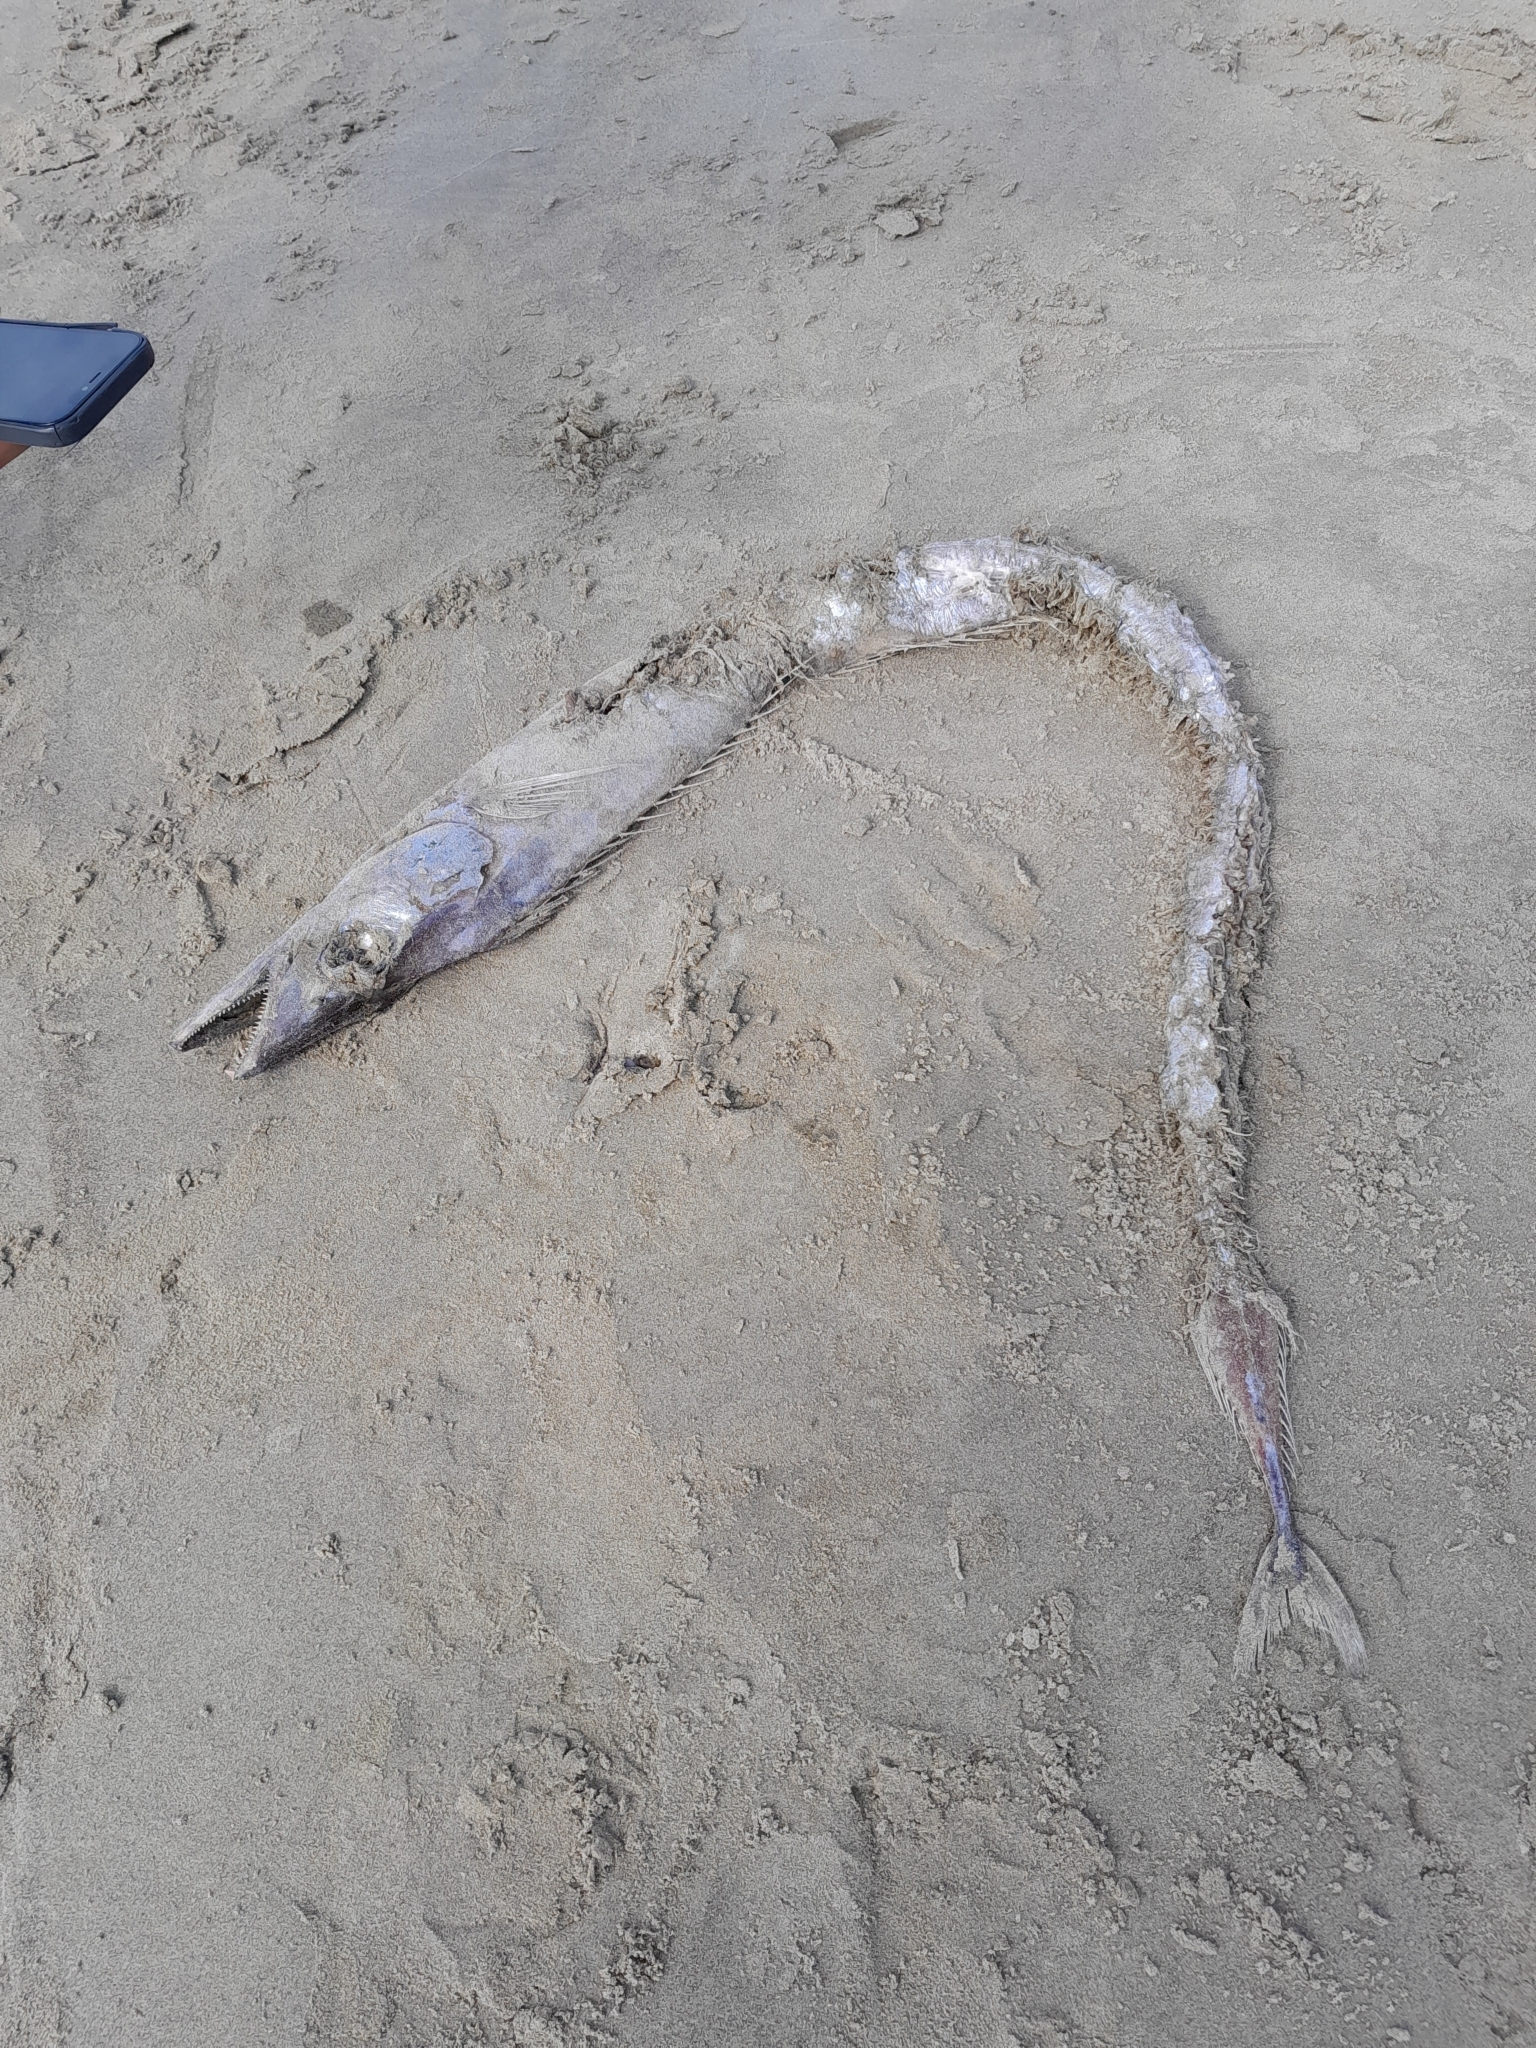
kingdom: Animalia
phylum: Chordata
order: Perciformes
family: Trichiuridae
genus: Lepidopus
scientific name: Lepidopus caudatus
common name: Silver scabbardfish
